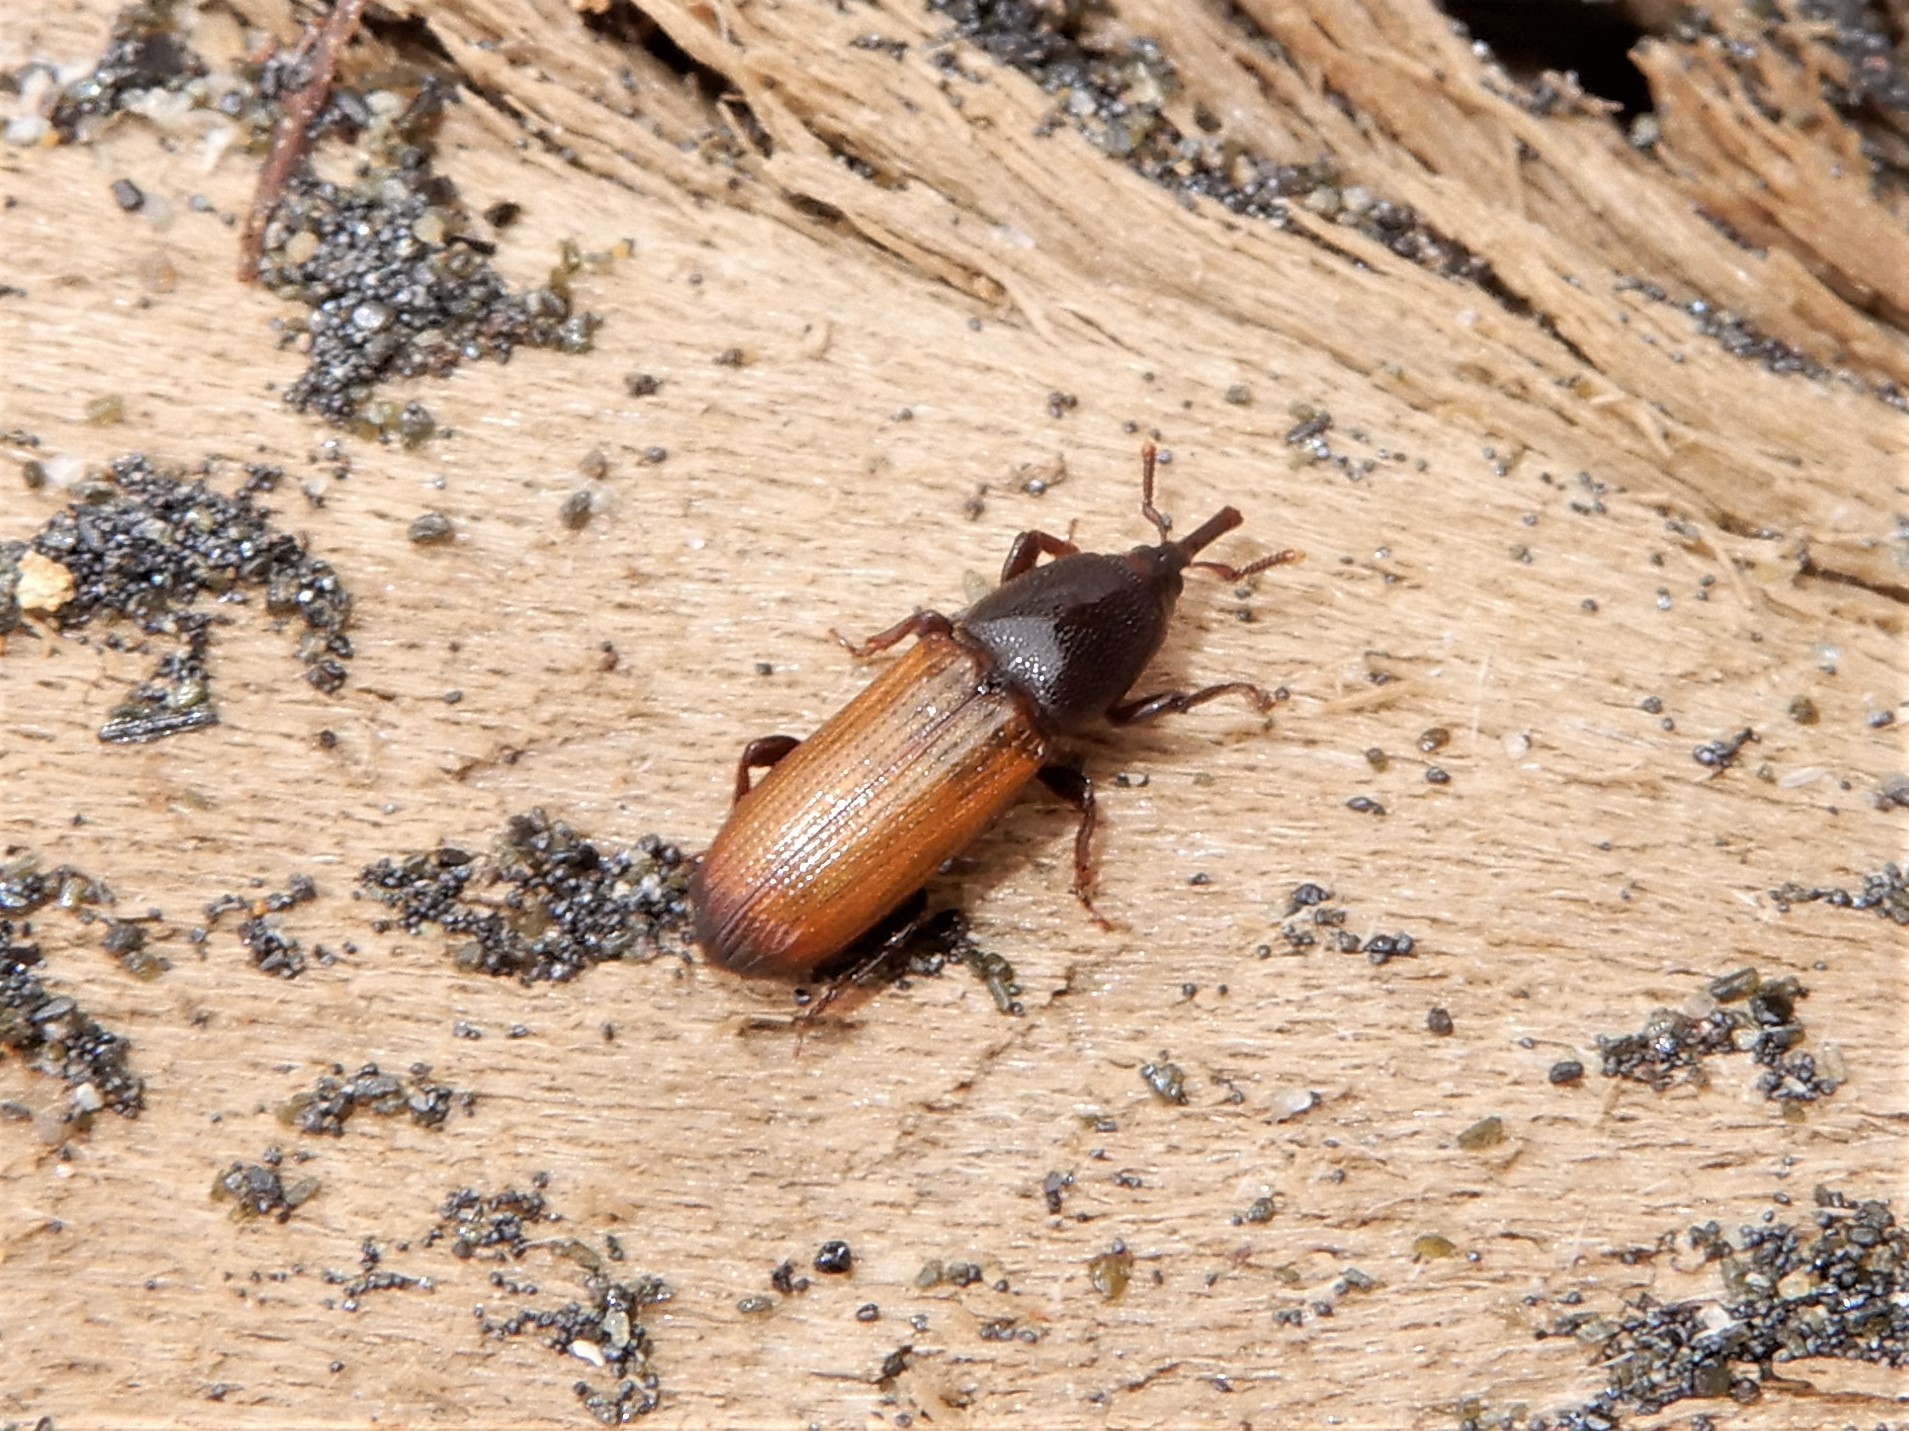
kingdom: Animalia
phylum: Arthropoda
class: Insecta
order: Coleoptera
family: Curculionidae
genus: Mesites
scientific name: Mesites pallidipennis
